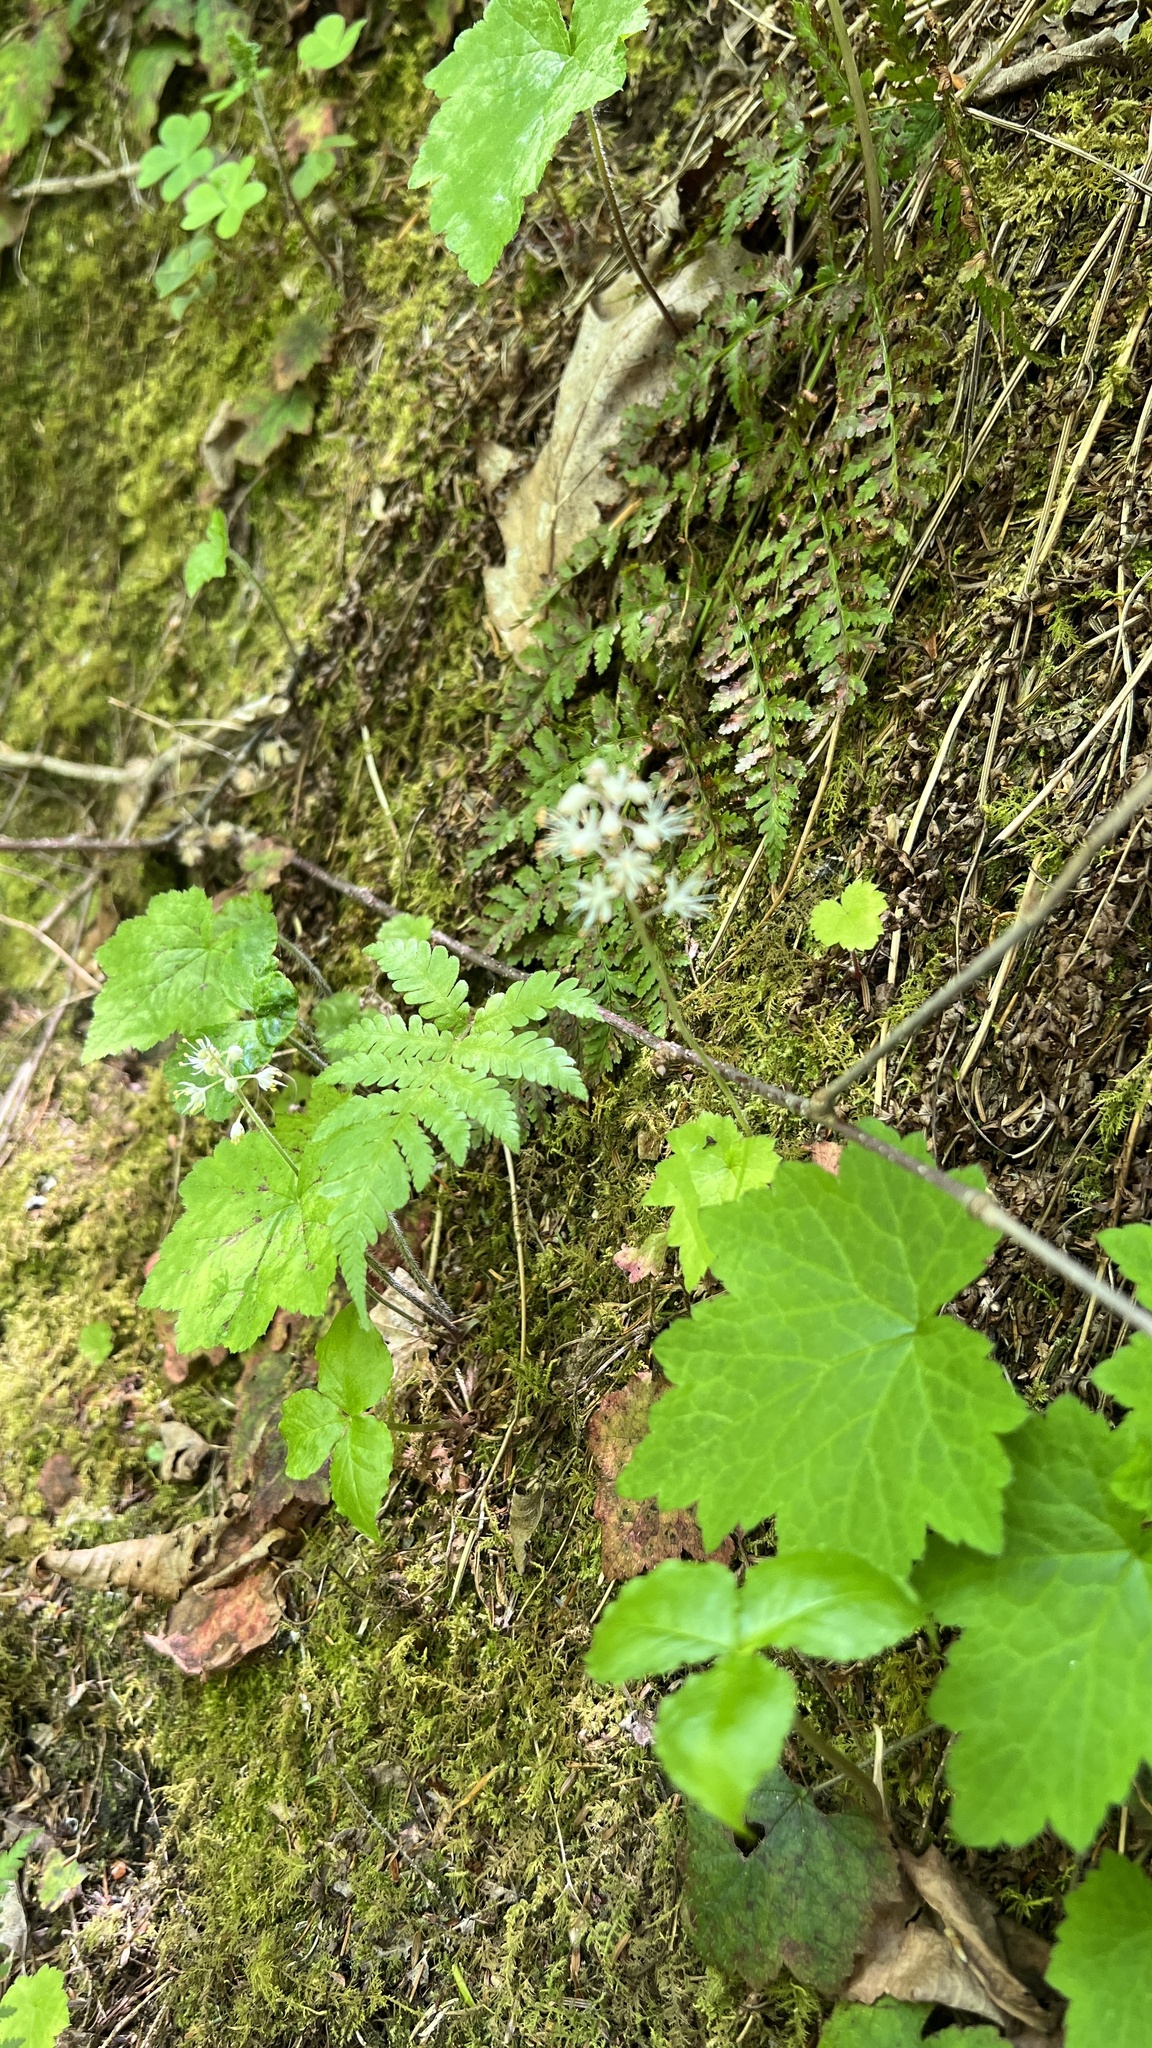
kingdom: Plantae
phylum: Tracheophyta
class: Magnoliopsida
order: Saxifragales
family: Saxifragaceae
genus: Tiarella
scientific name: Tiarella stolonifera
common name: Stoloniferous foamflower
